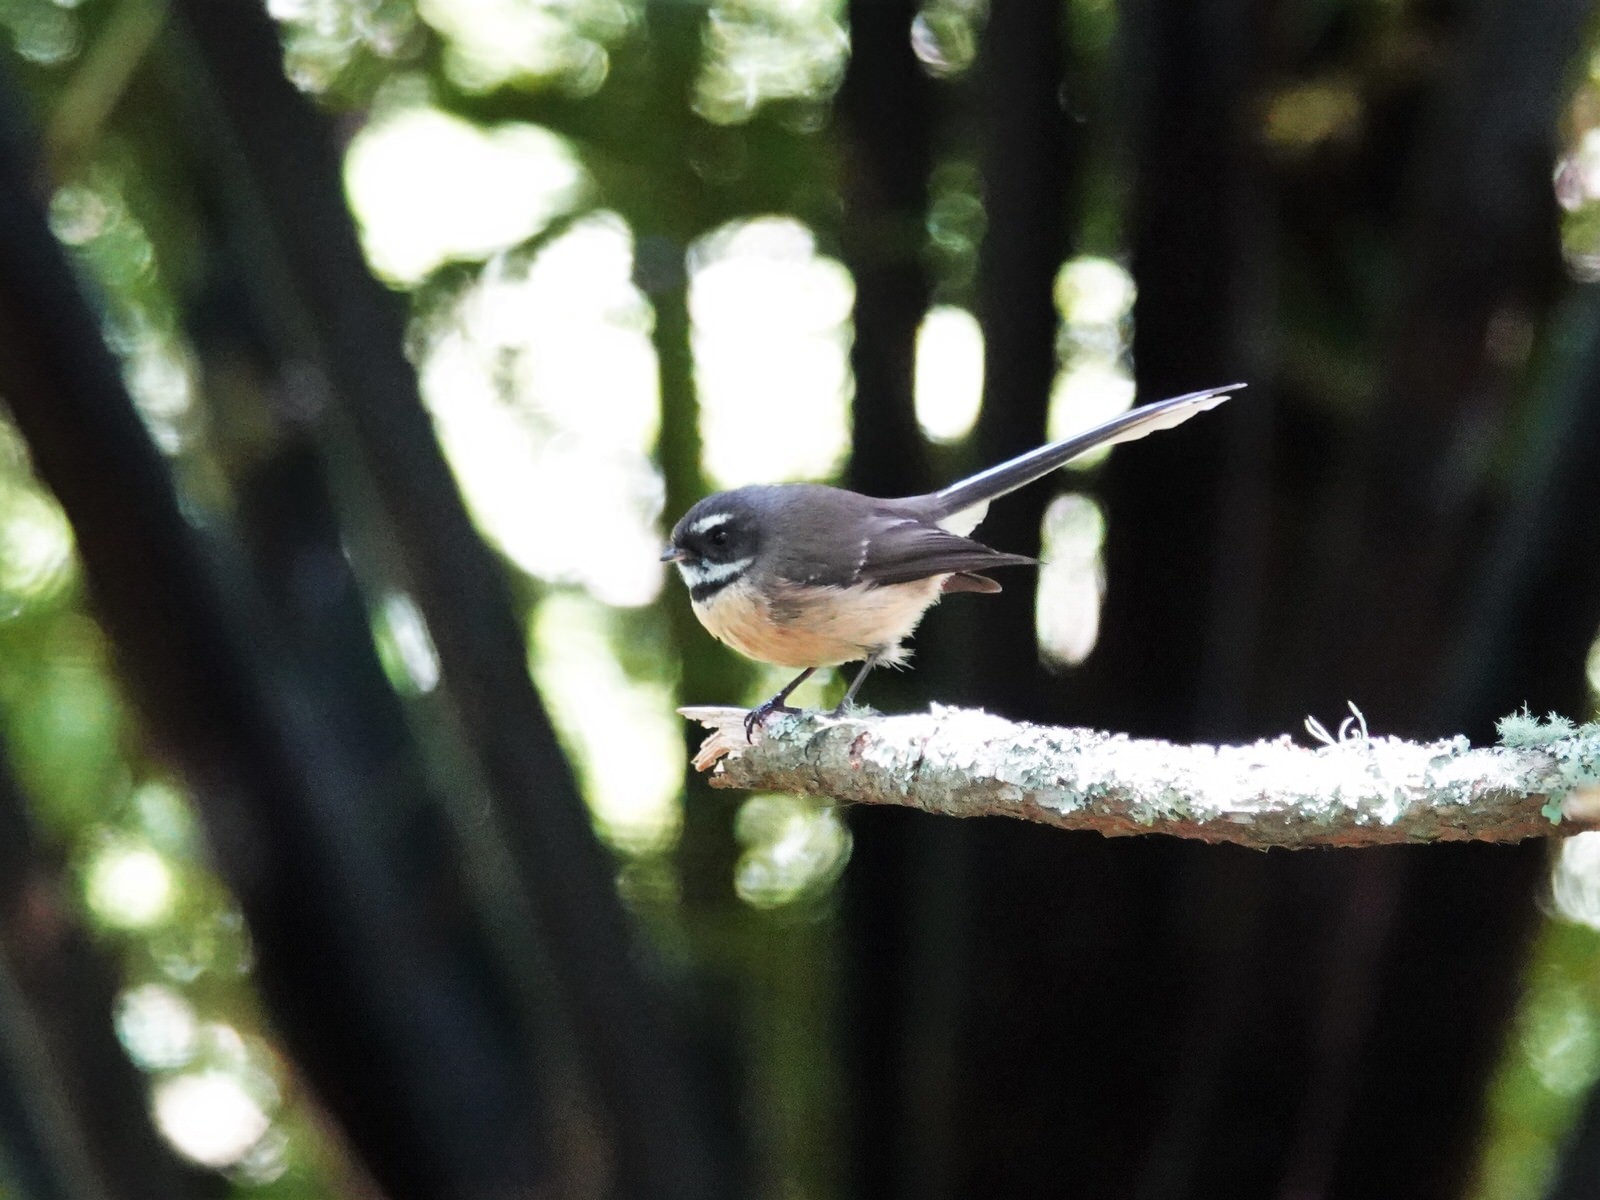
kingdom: Animalia
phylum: Chordata
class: Aves
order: Passeriformes
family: Rhipiduridae
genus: Rhipidura
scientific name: Rhipidura fuliginosa
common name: New zealand fantail
